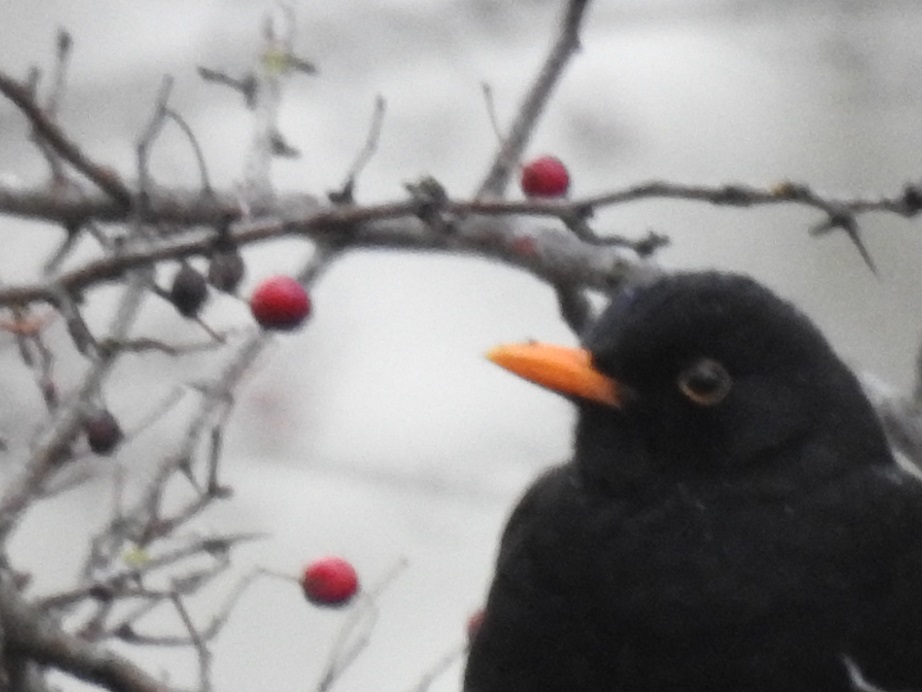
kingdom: Animalia
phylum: Chordata
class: Aves
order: Passeriformes
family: Turdidae
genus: Turdus
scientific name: Turdus merula
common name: Common blackbird
